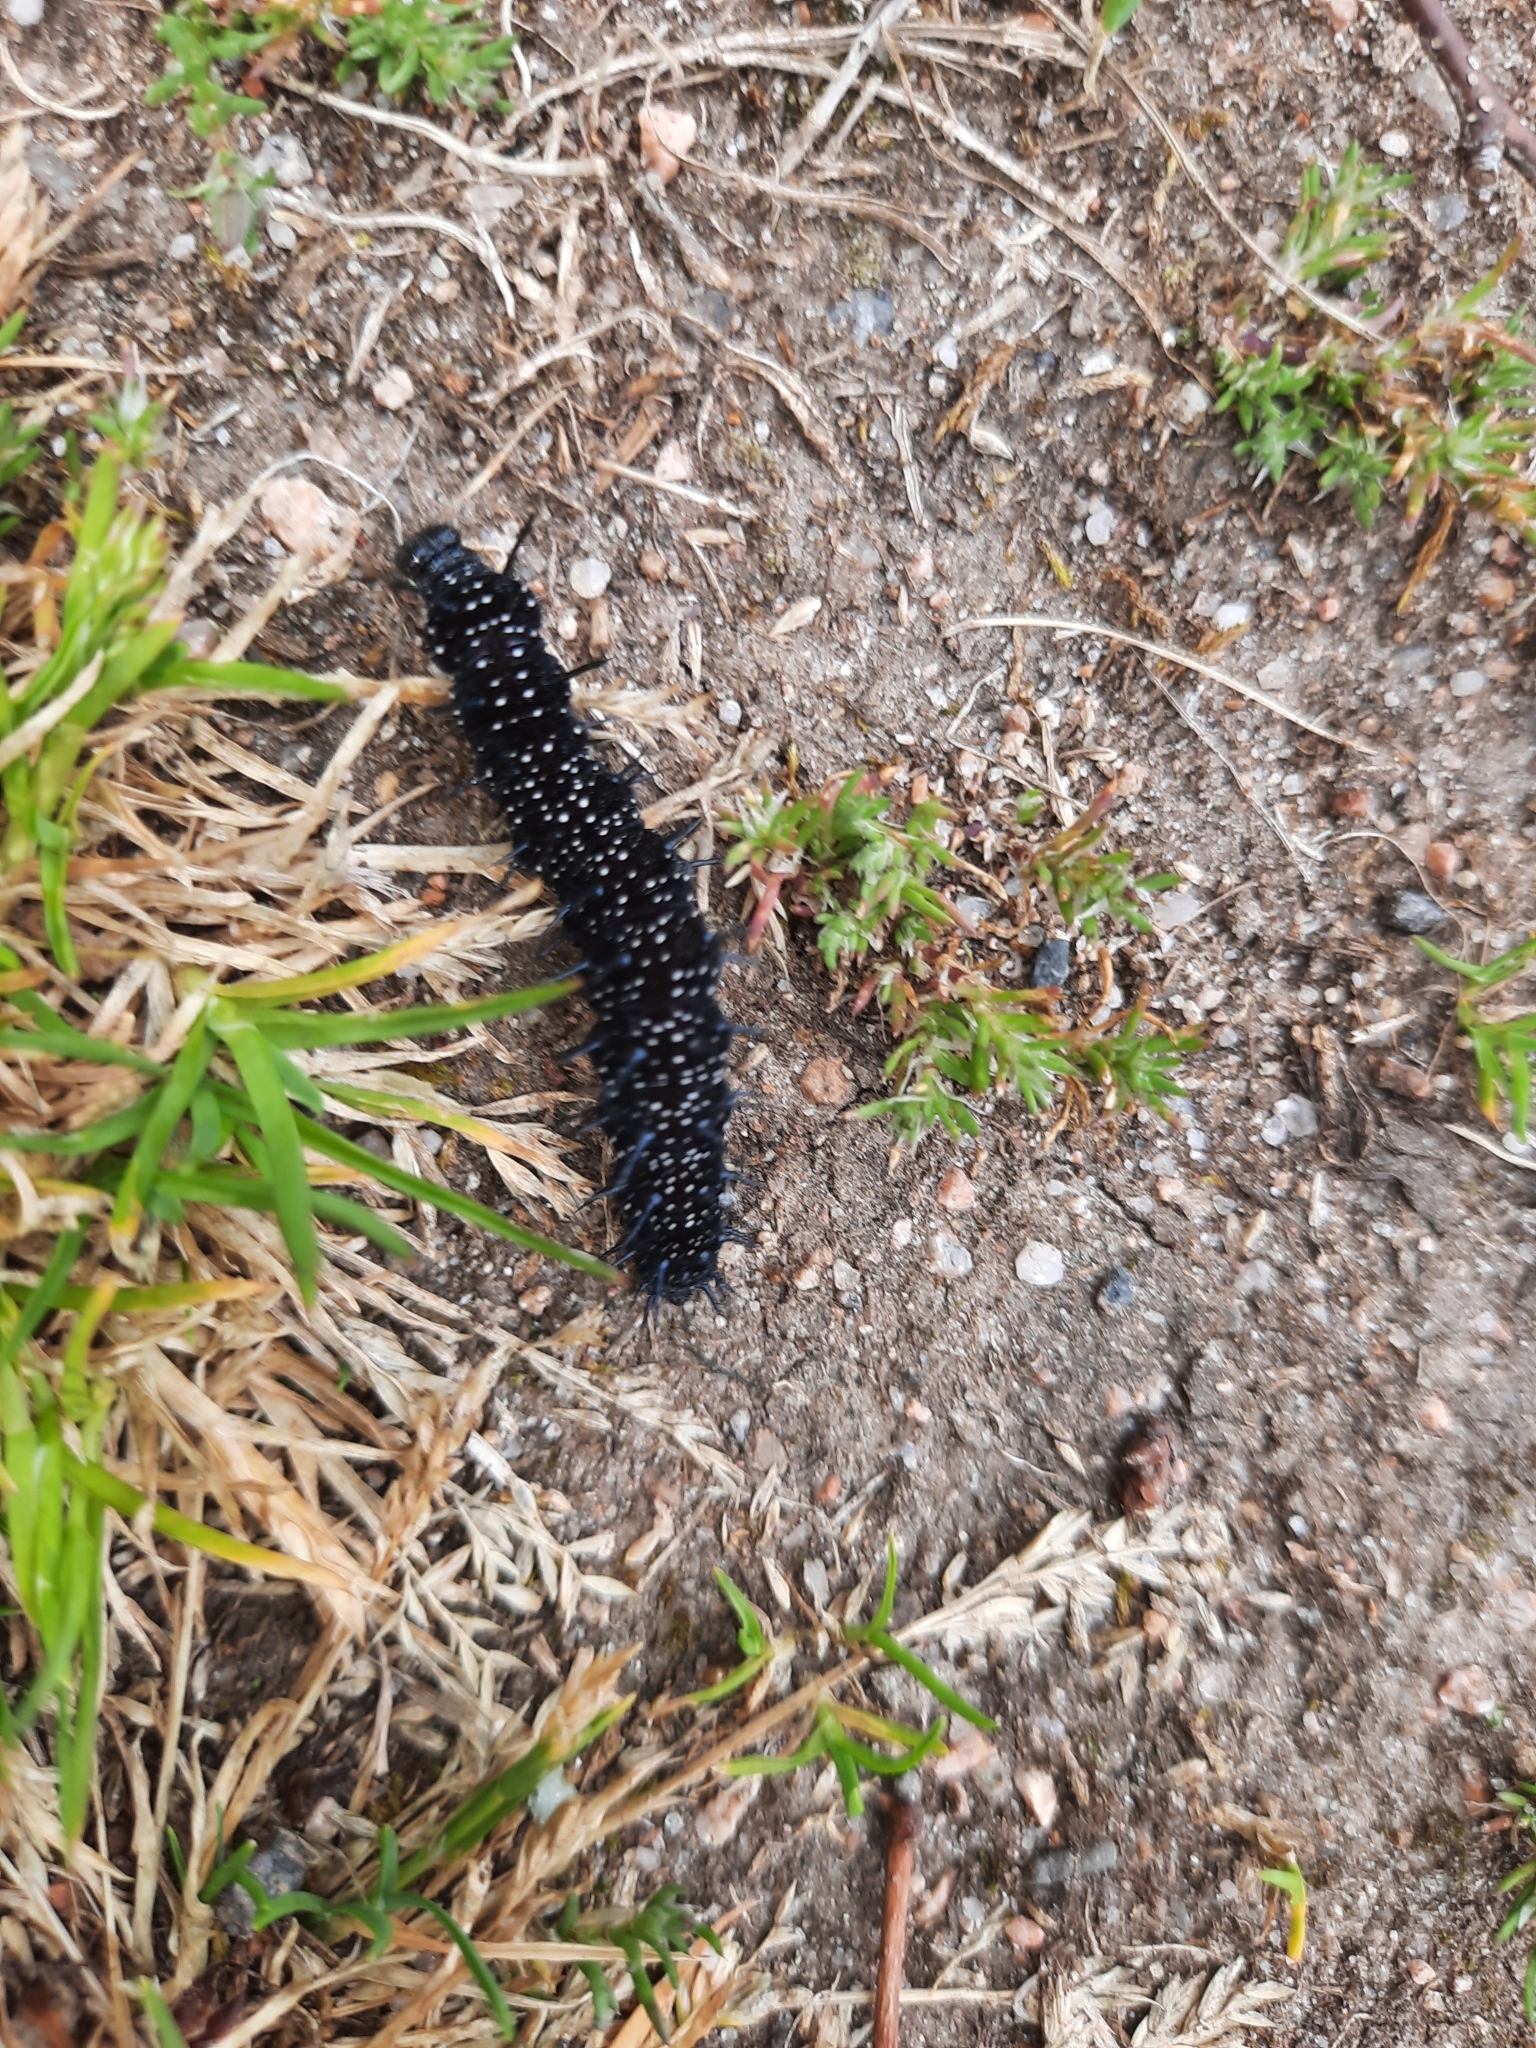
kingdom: Animalia
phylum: Arthropoda
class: Insecta
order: Lepidoptera
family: Nymphalidae
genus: Aglais
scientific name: Aglais io
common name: Peacock
